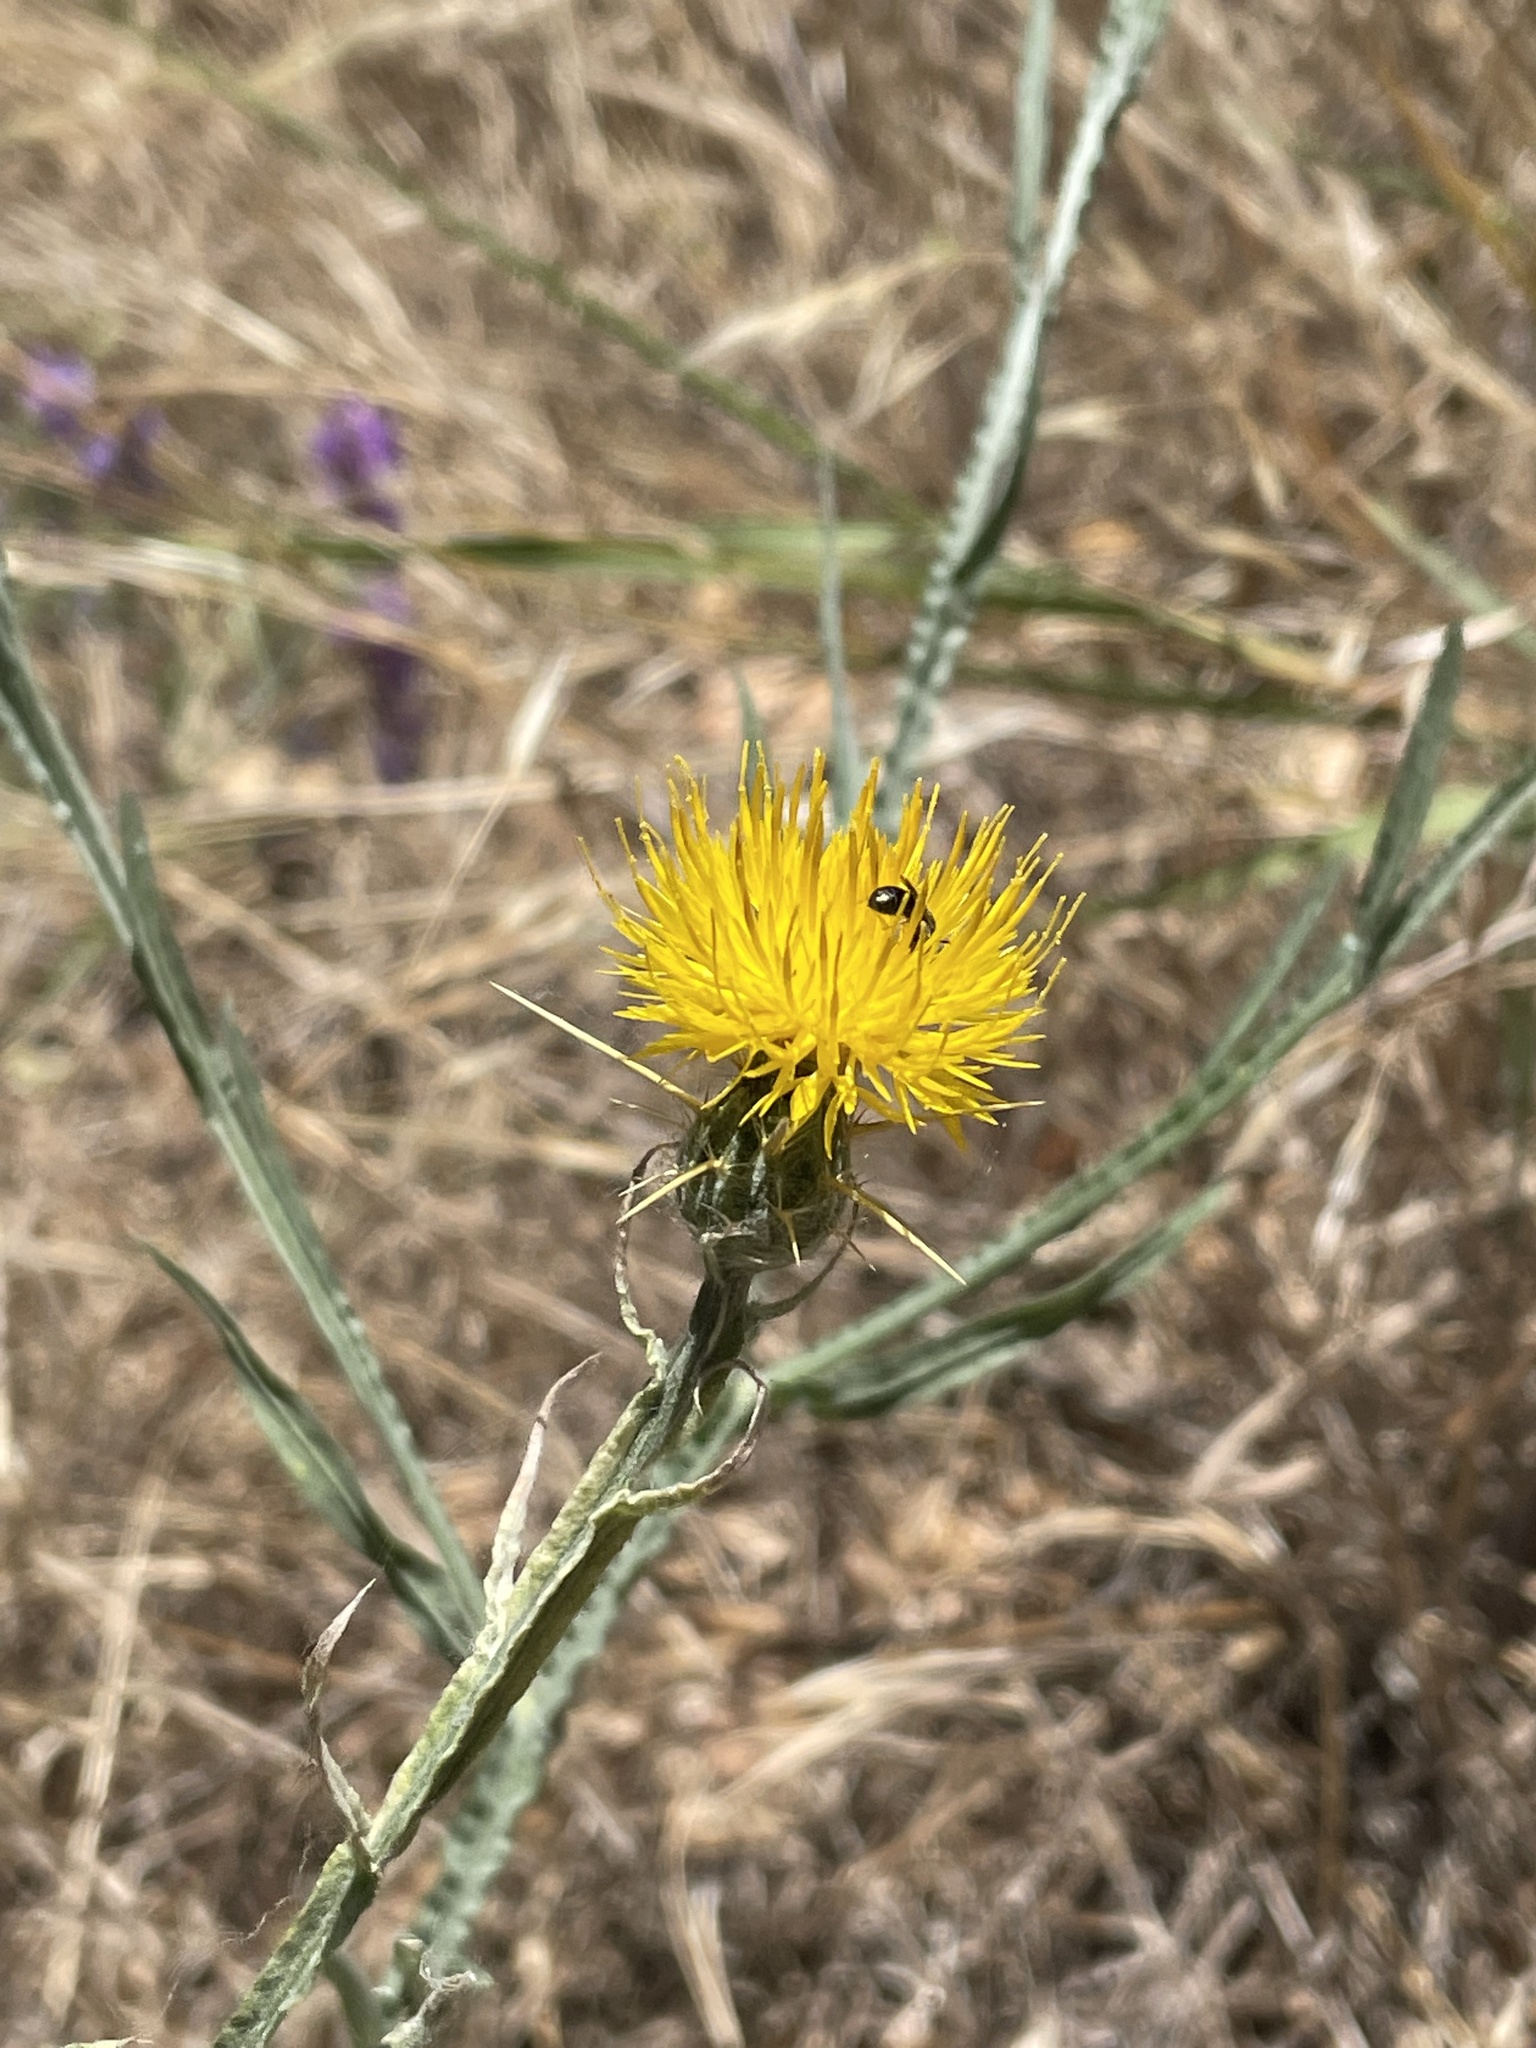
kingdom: Plantae
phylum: Tracheophyta
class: Magnoliopsida
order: Asterales
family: Asteraceae
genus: Centaurea
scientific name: Centaurea solstitialis
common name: Yellow star-thistle
